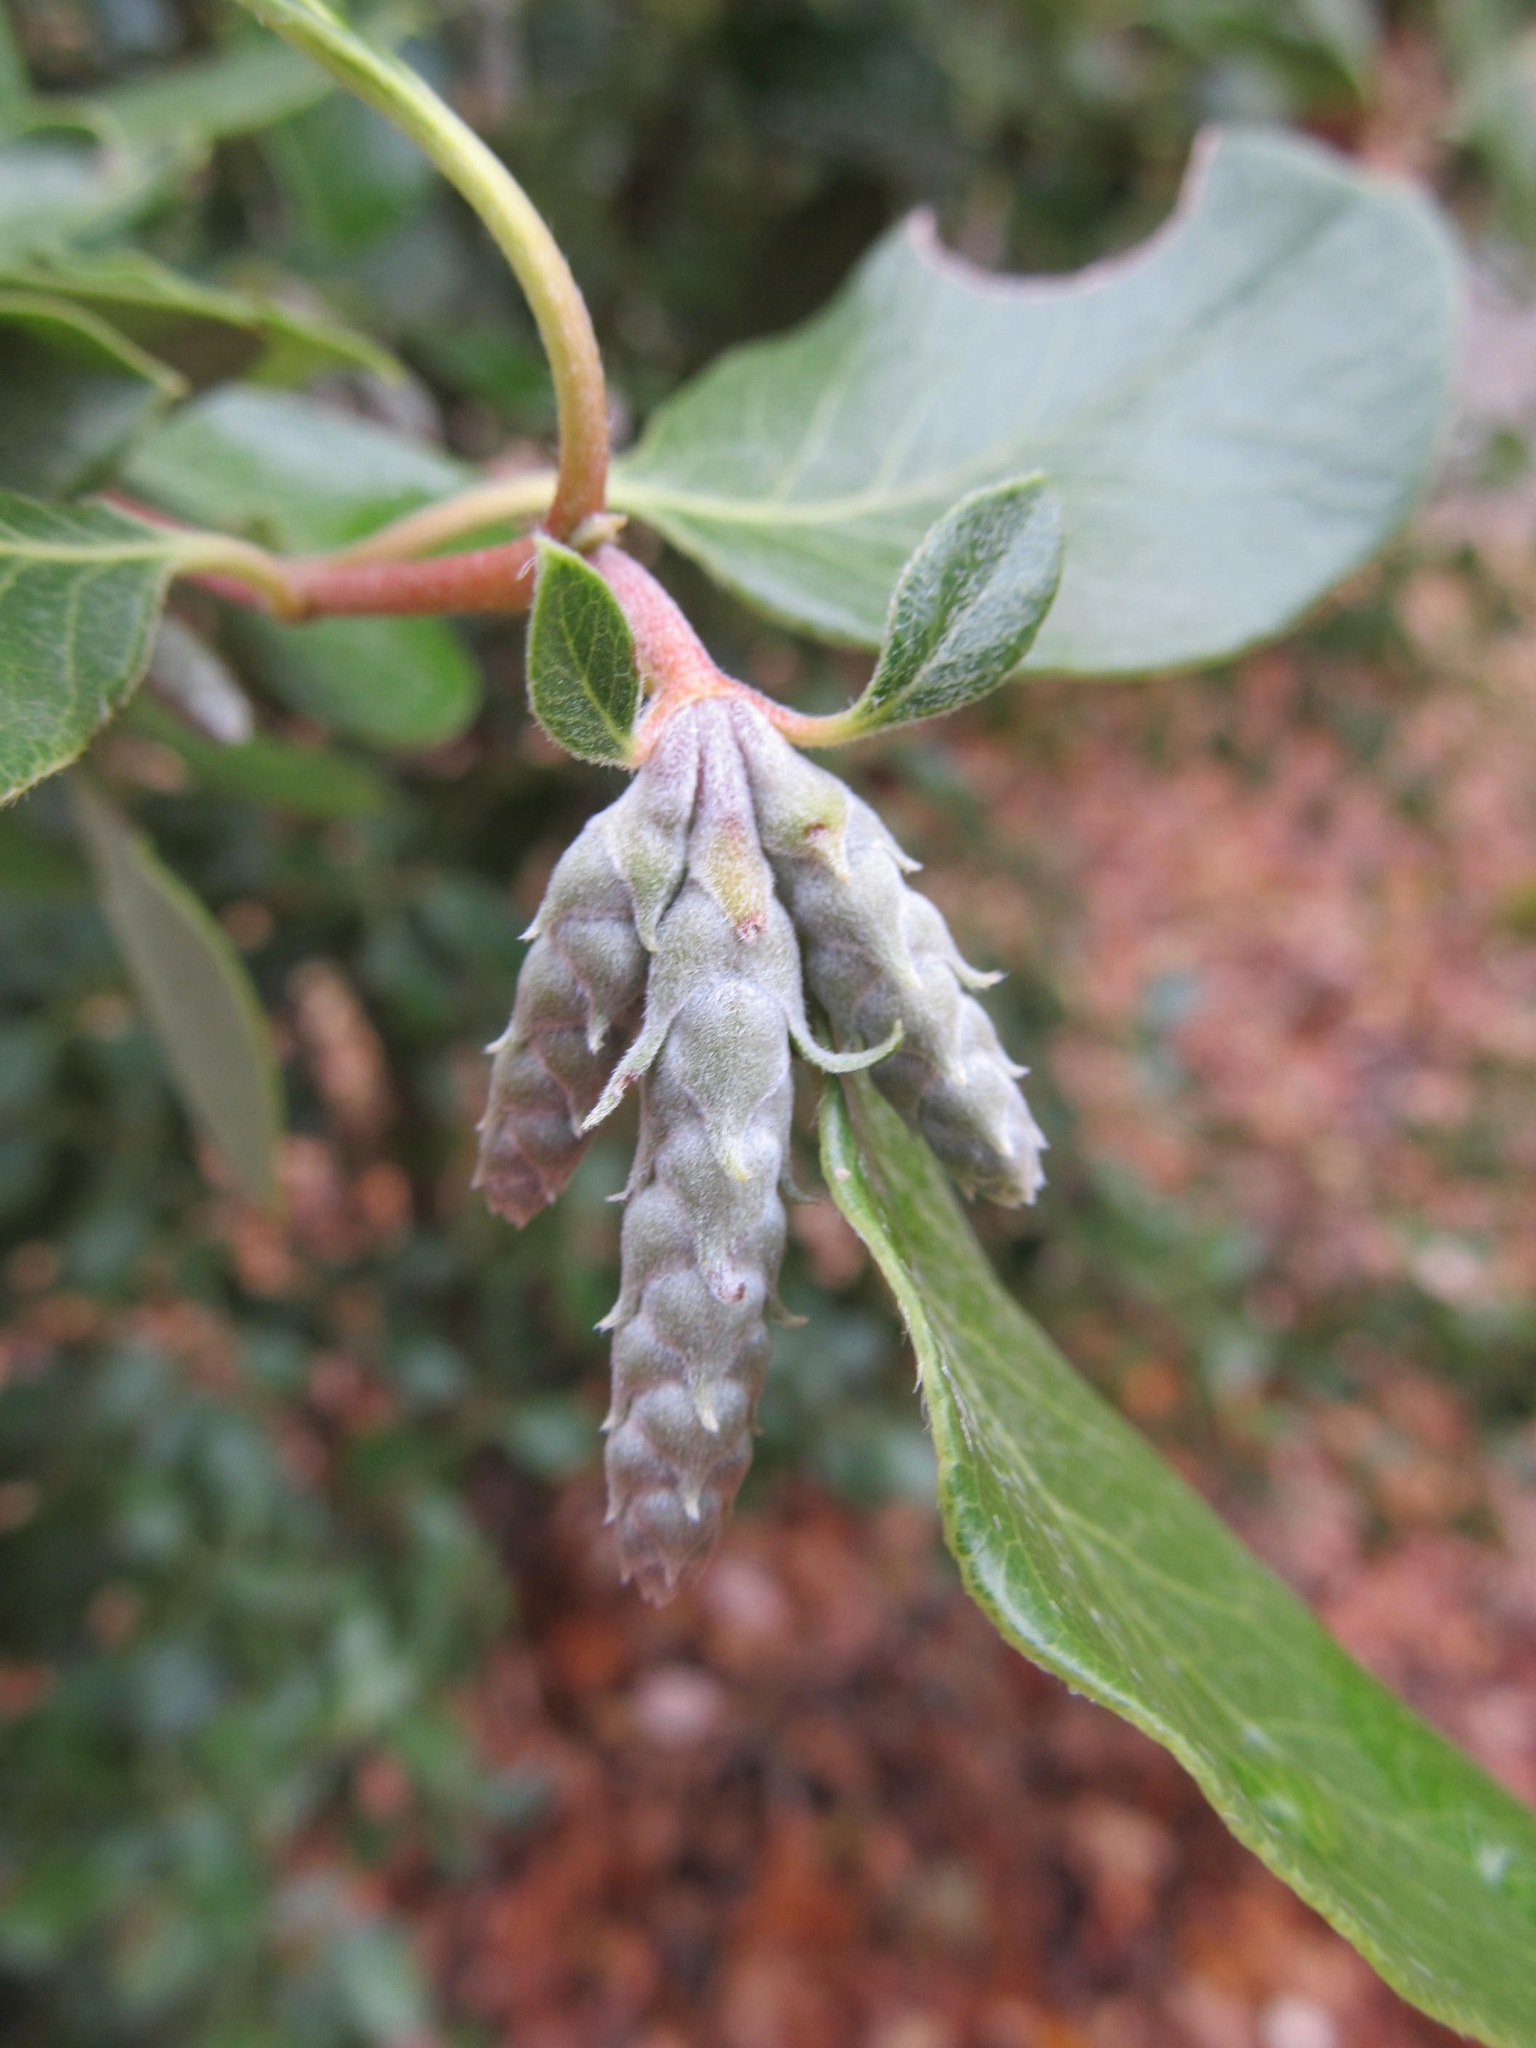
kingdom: Plantae
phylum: Tracheophyta
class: Magnoliopsida
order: Garryales
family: Garryaceae
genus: Garrya
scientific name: Garrya fremontii
